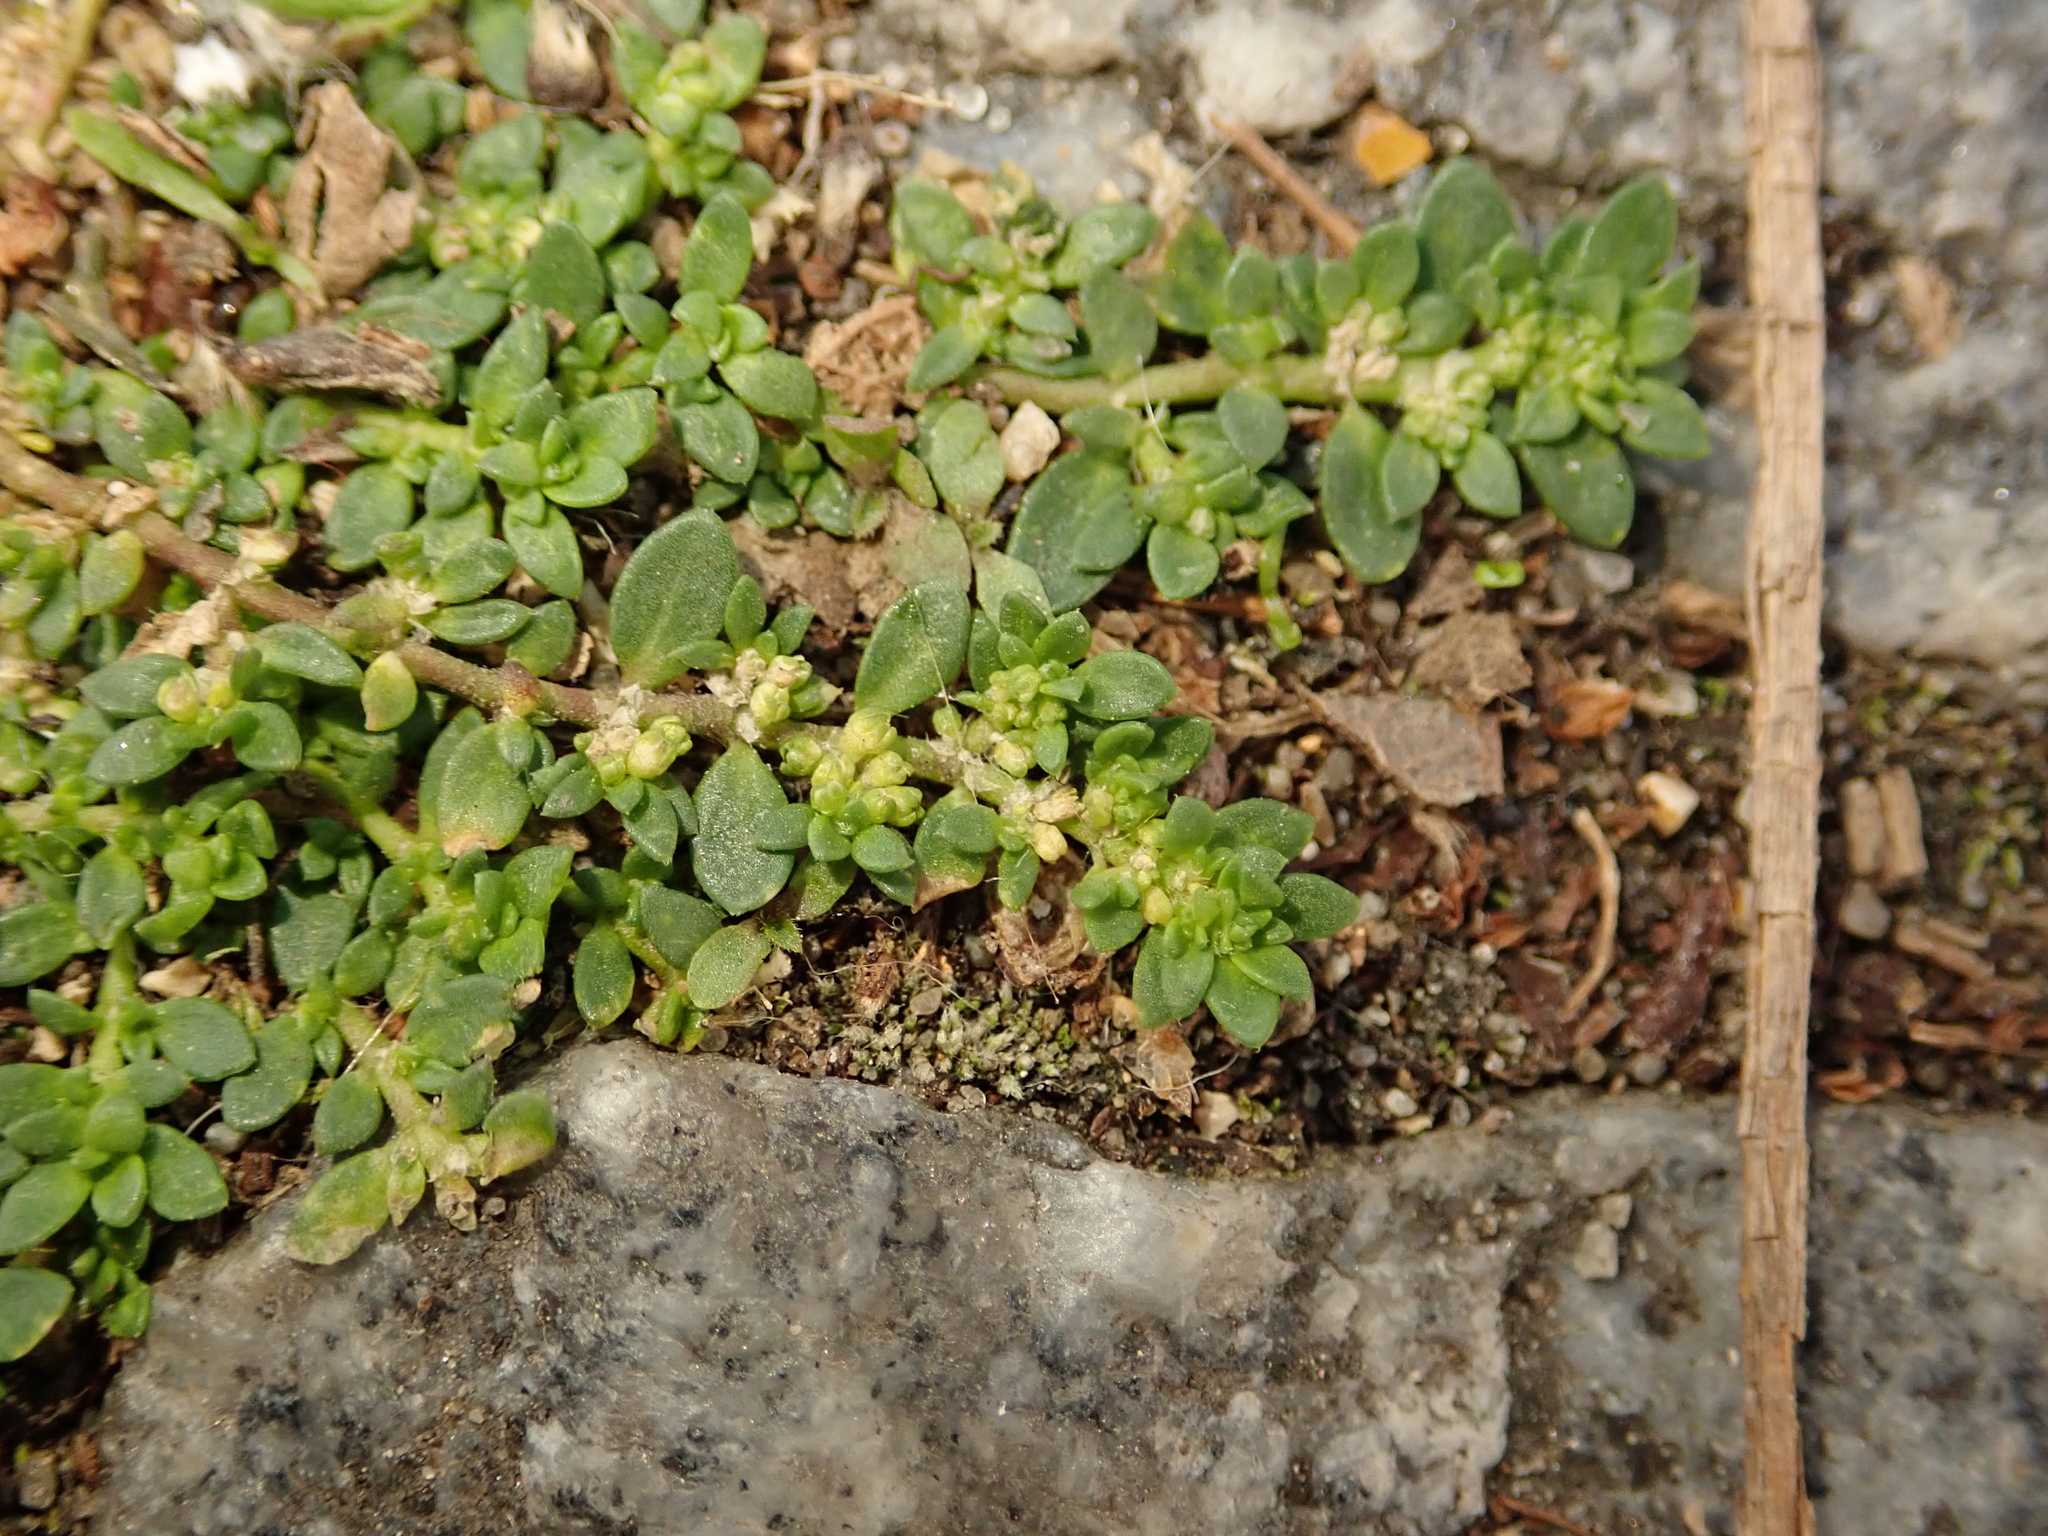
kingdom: Plantae
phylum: Tracheophyta
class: Magnoliopsida
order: Caryophyllales
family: Caryophyllaceae
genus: Herniaria
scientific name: Herniaria glabra
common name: Smooth rupturewort
